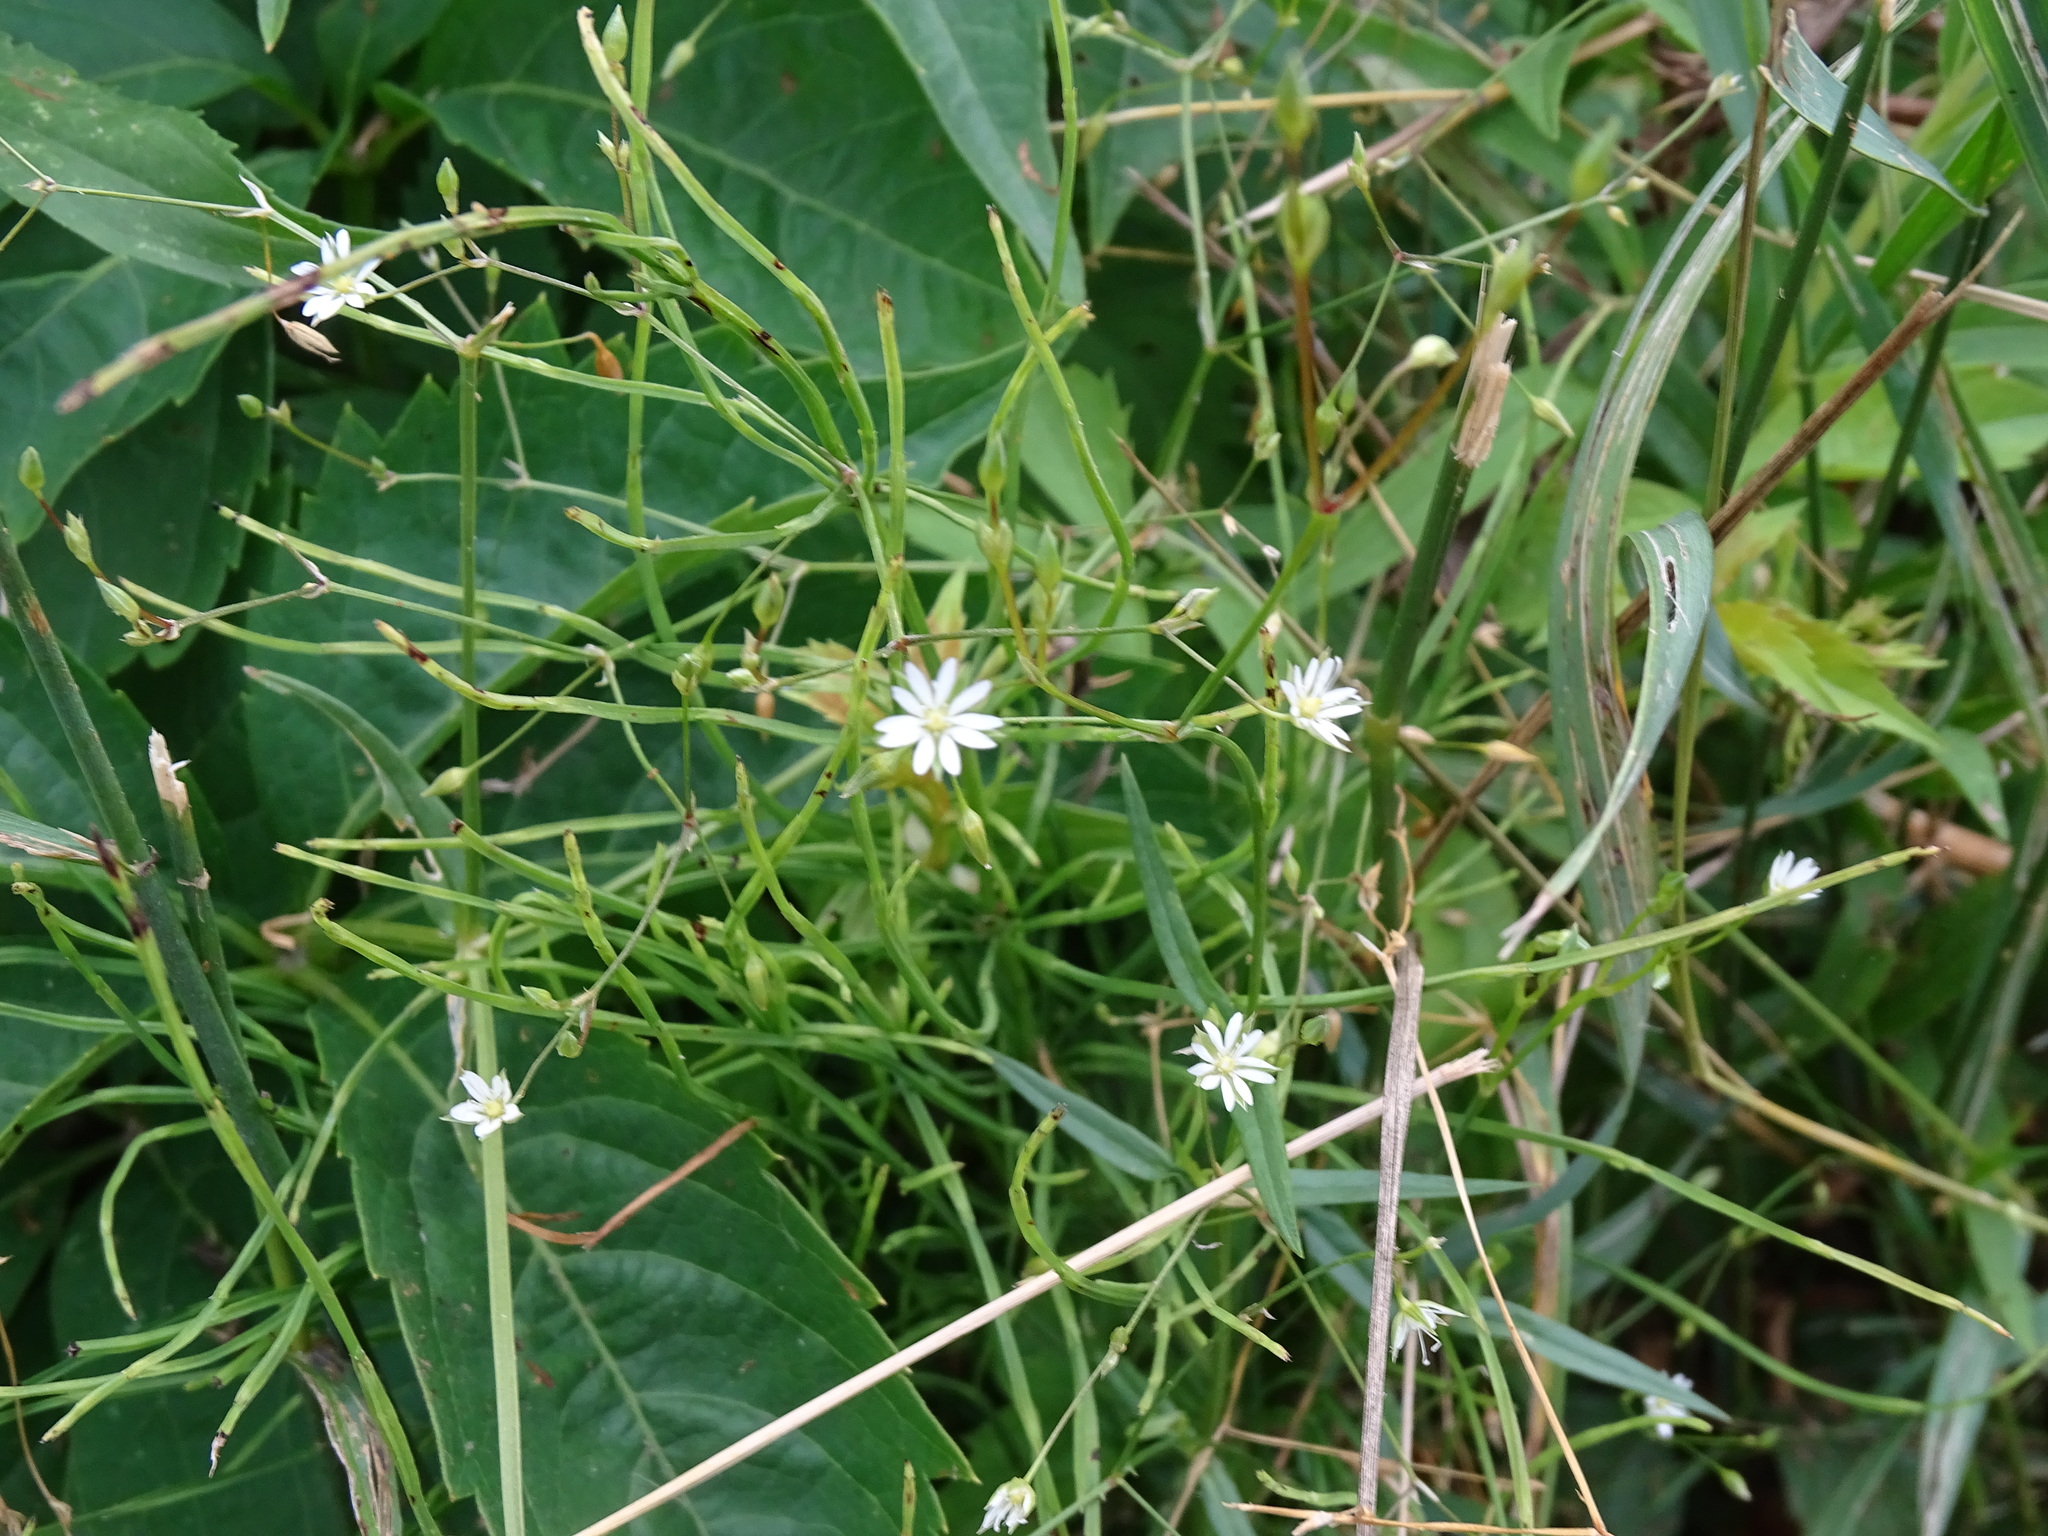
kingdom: Plantae
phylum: Tracheophyta
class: Magnoliopsida
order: Caryophyllales
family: Caryophyllaceae
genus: Stellaria
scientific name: Stellaria graminea
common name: Grass-like starwort
